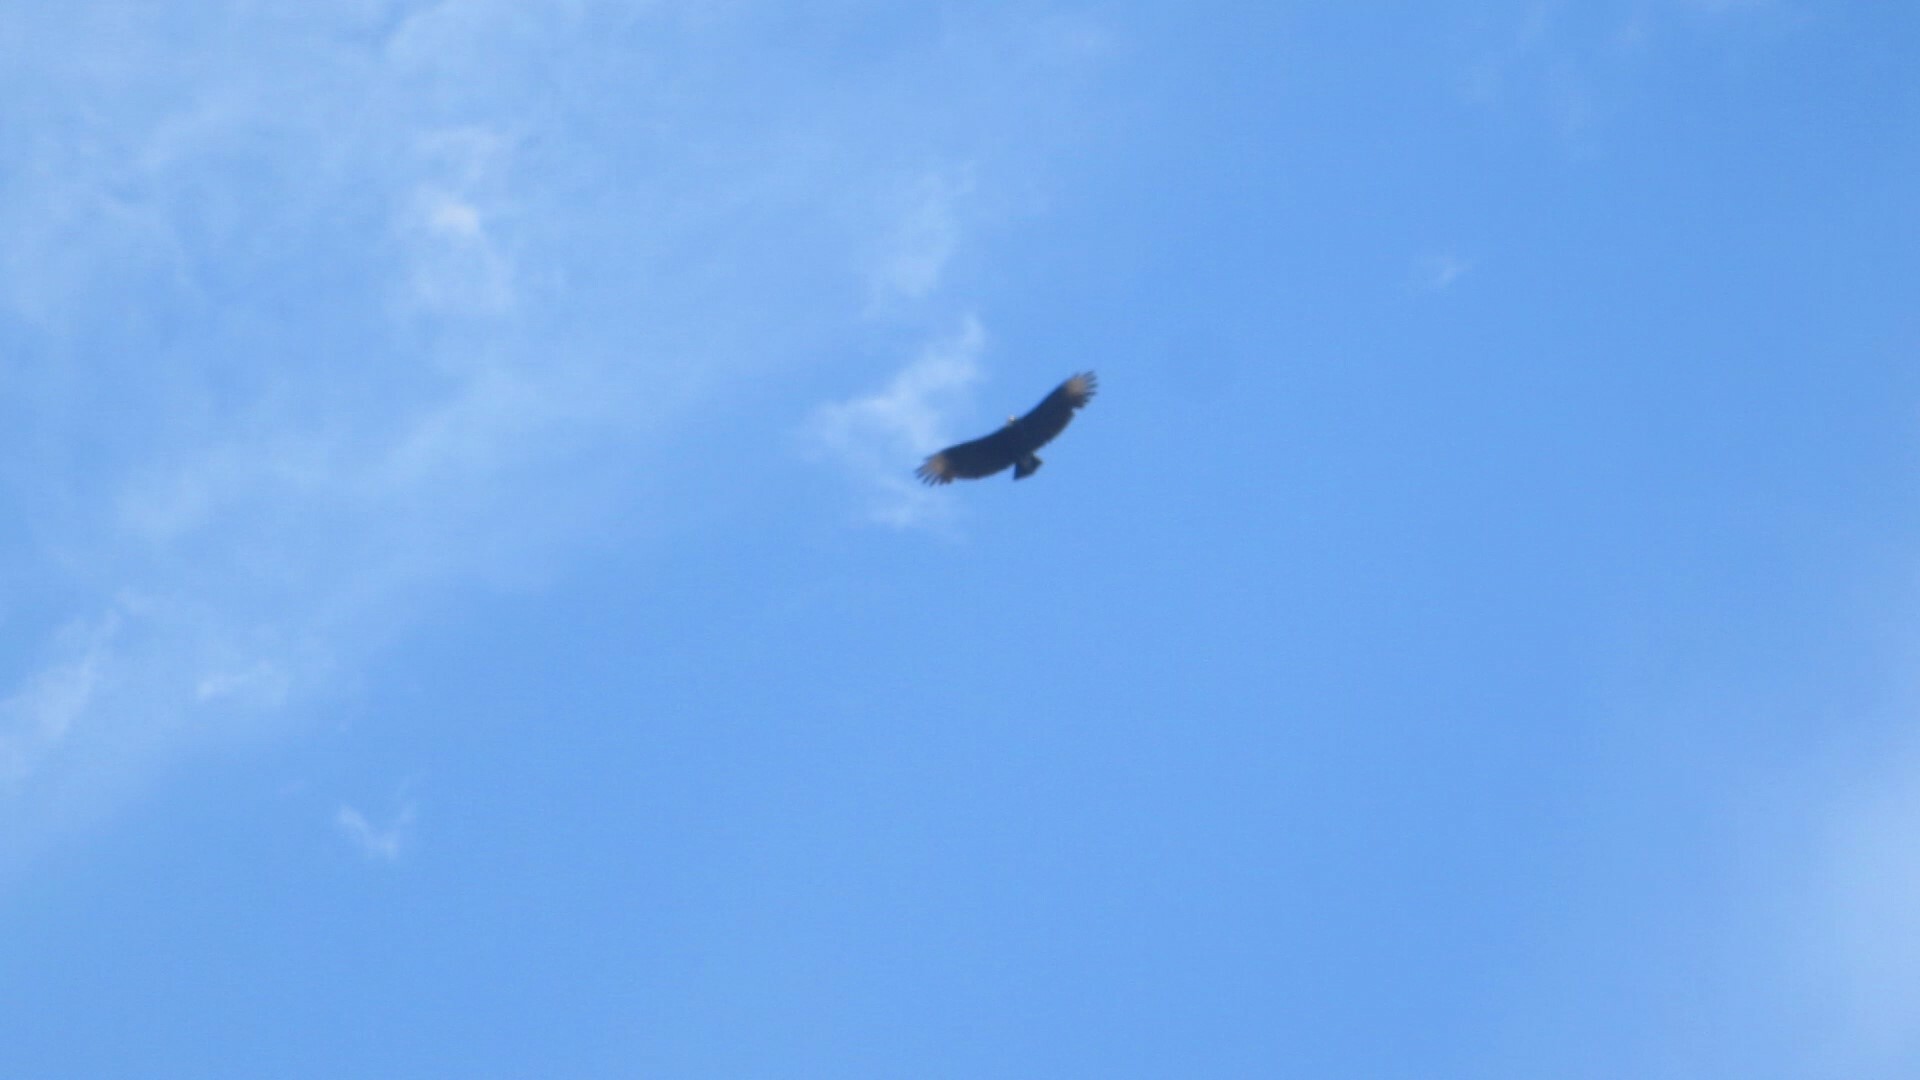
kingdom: Animalia
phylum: Chordata
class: Aves
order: Accipitriformes
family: Cathartidae
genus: Coragyps
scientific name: Coragyps atratus
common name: Black vulture
